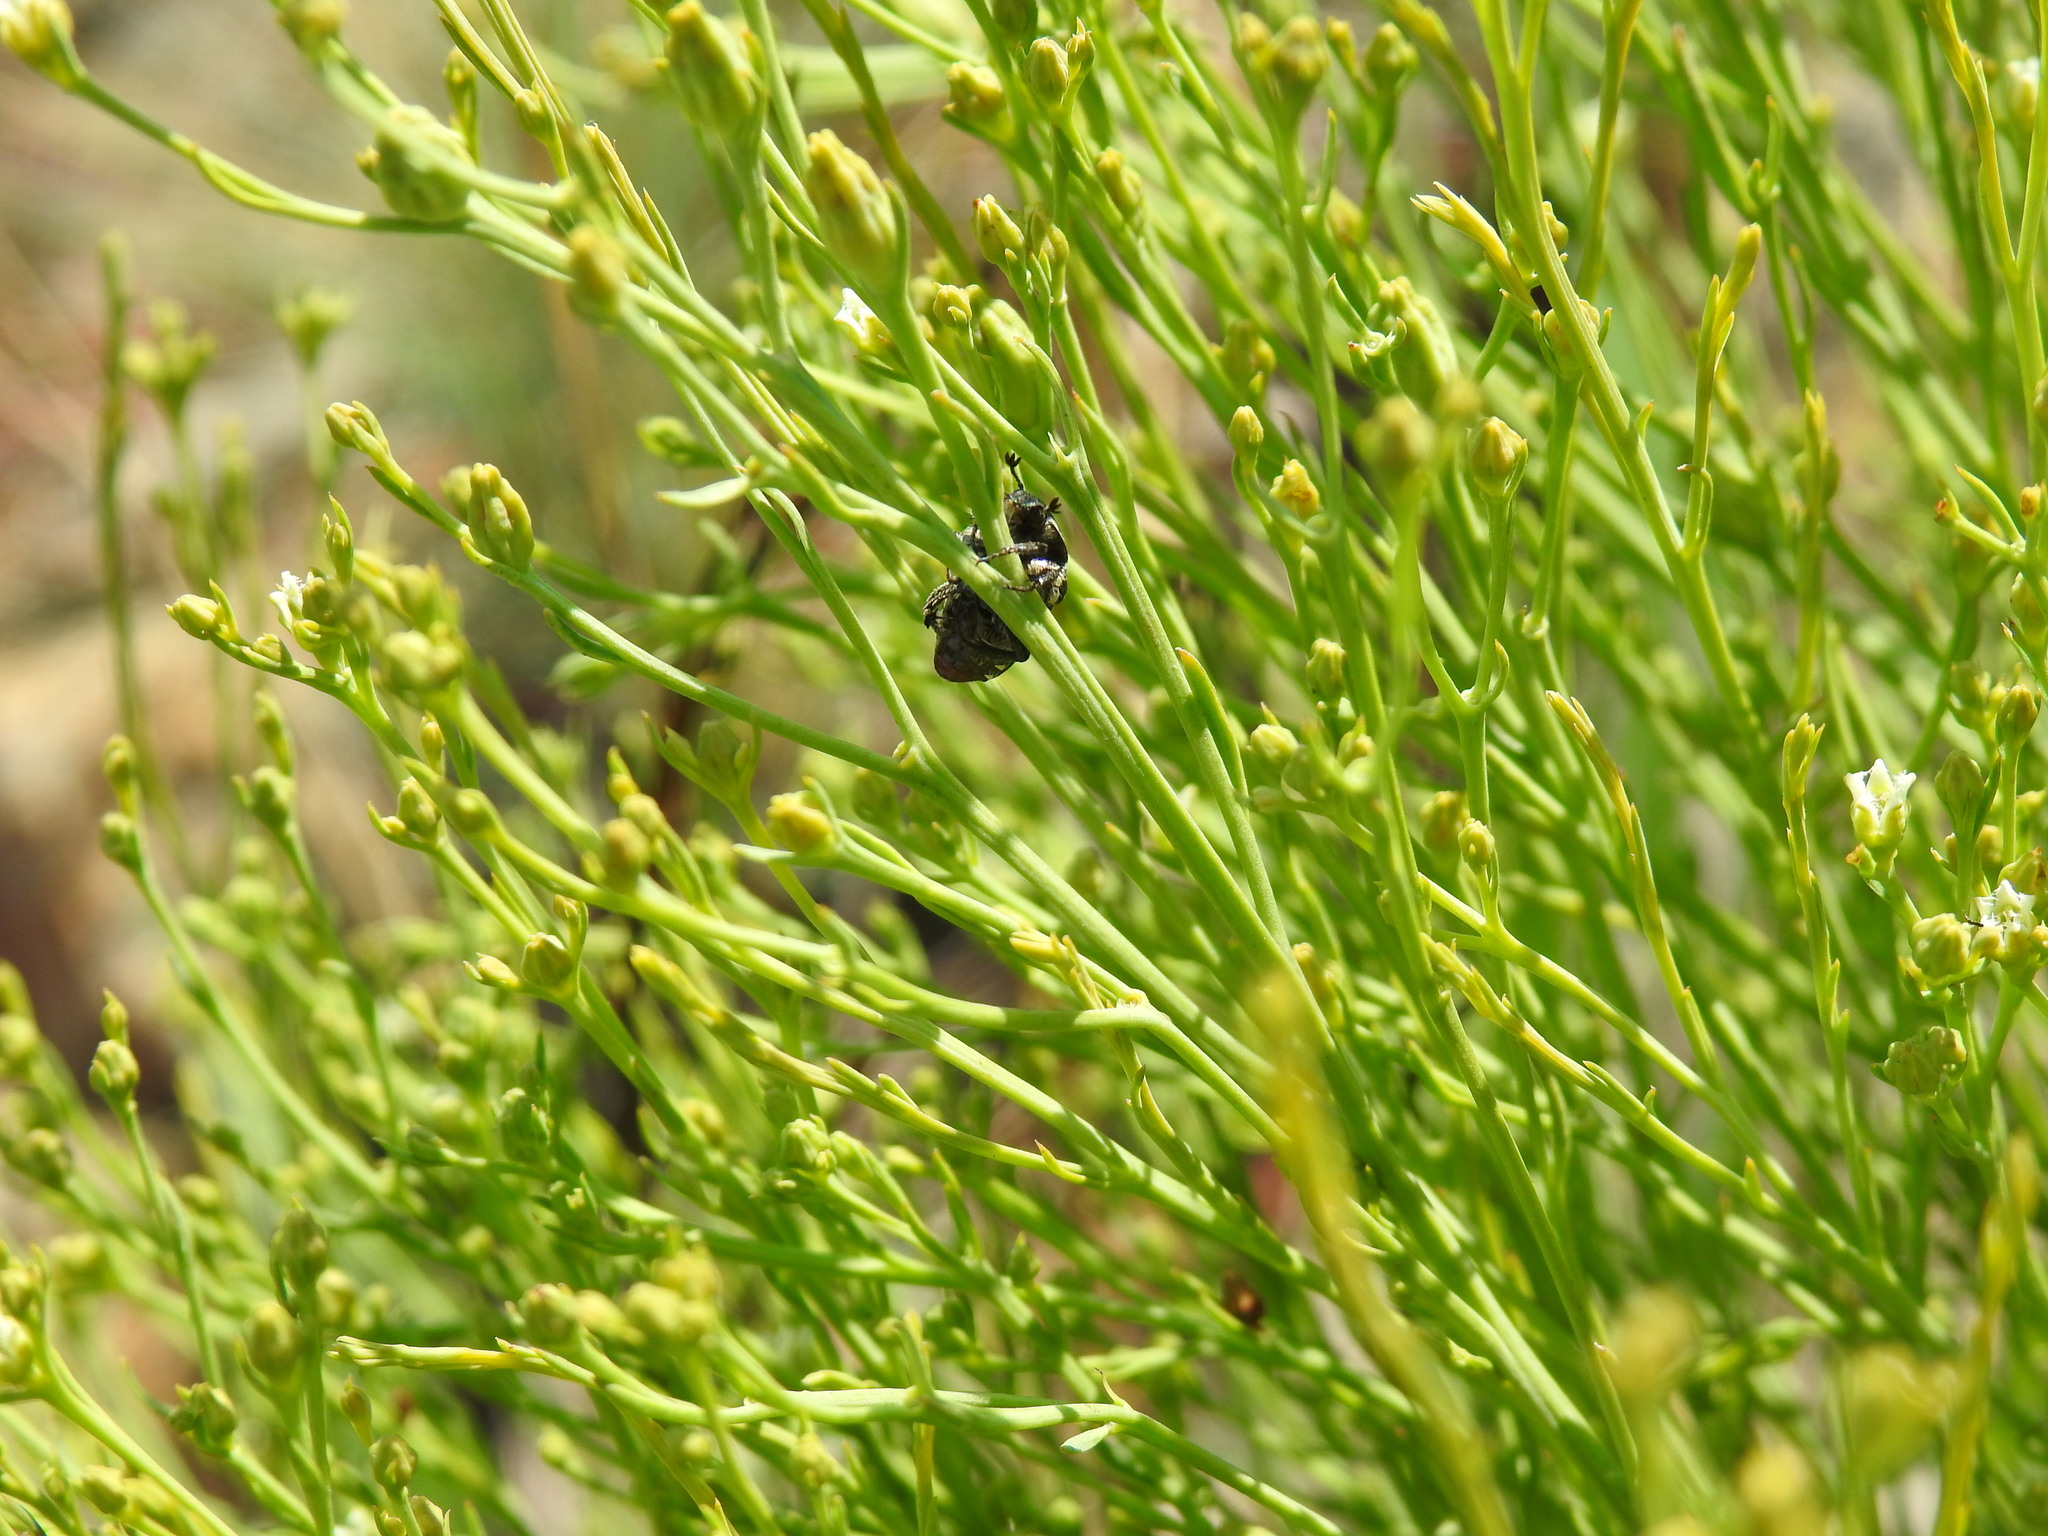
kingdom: Plantae
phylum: Tracheophyta
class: Magnoliopsida
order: Santalales
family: Thesiaceae
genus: Thesium
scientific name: Thesium utile
